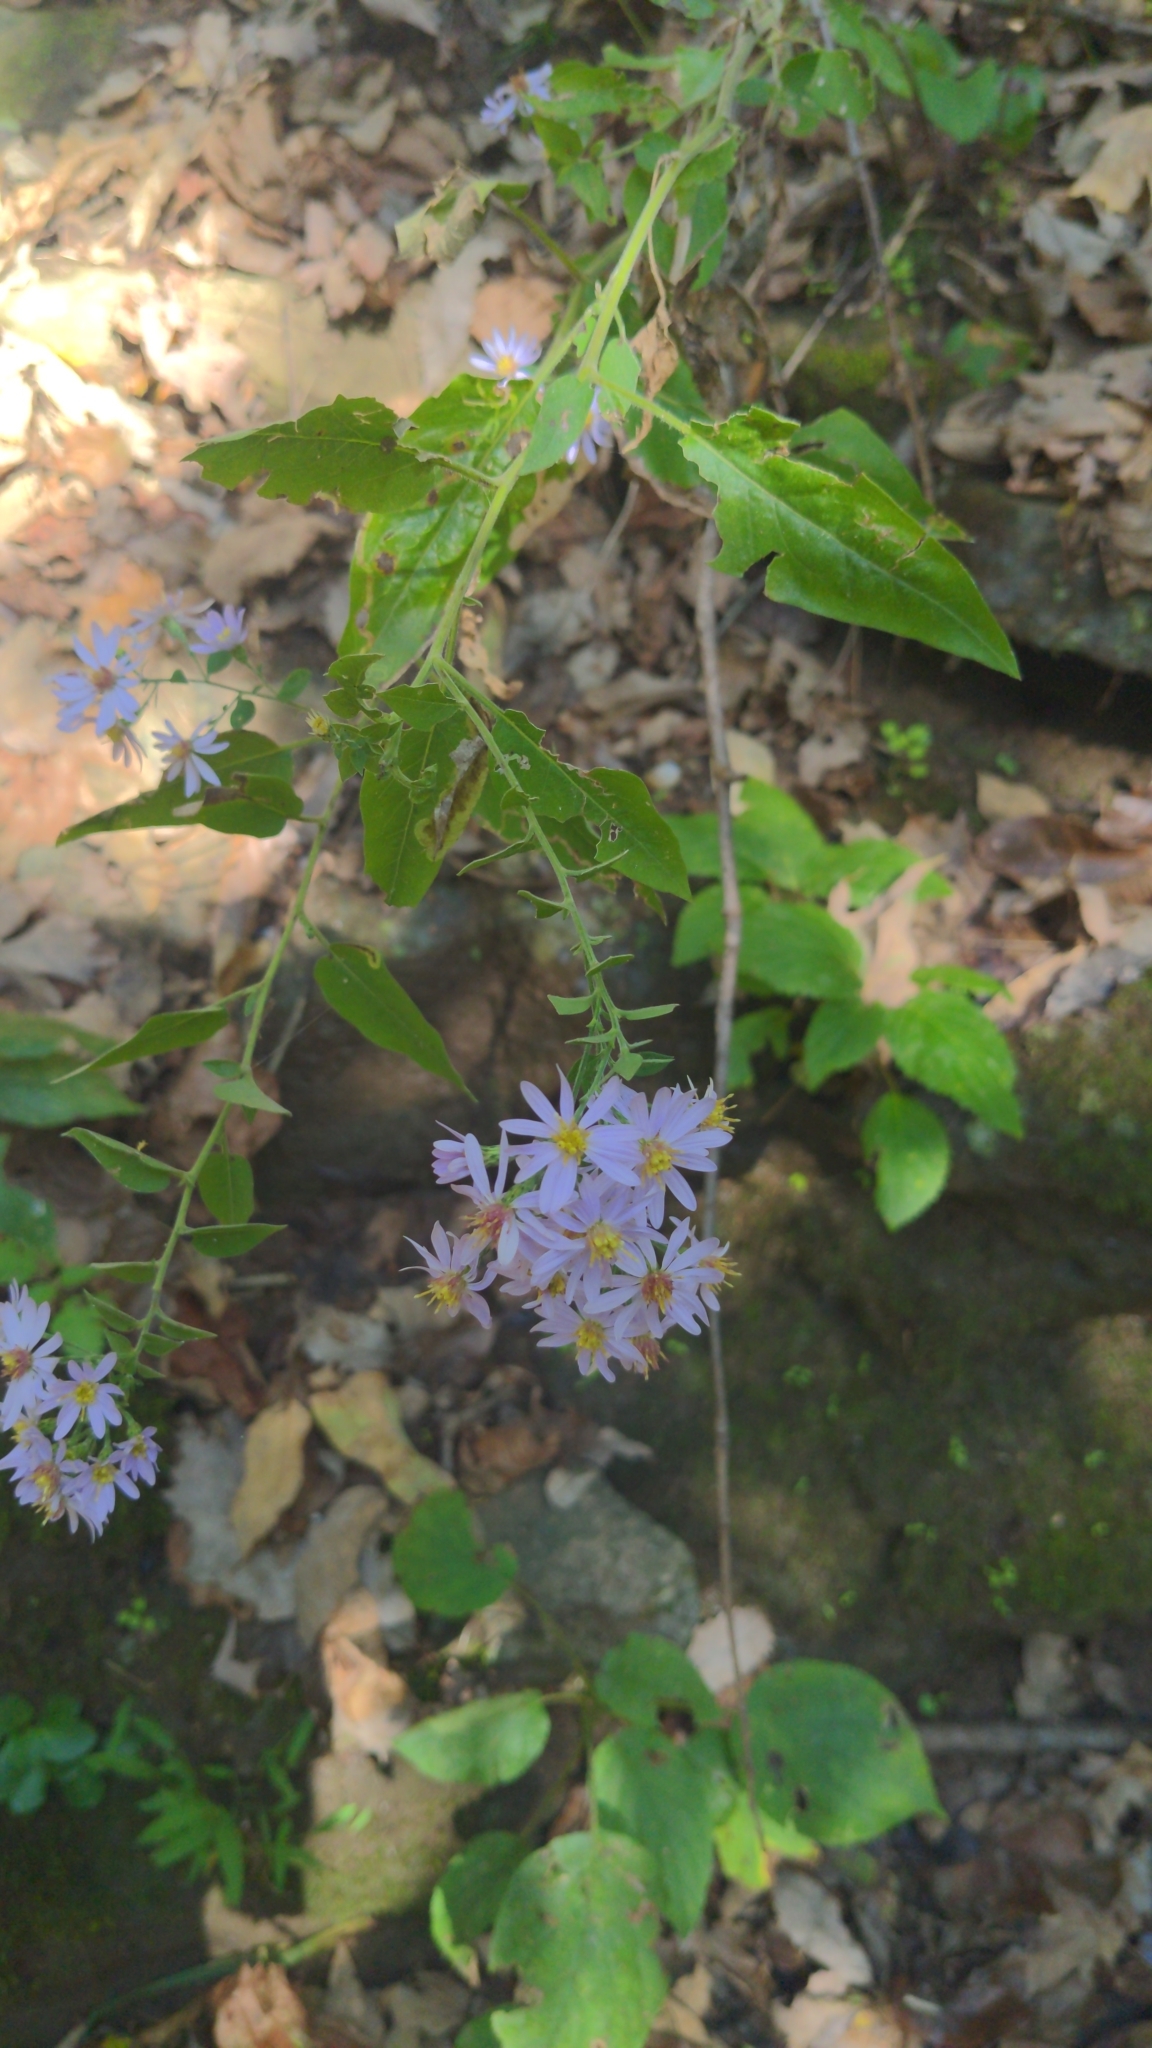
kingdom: Plantae
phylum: Tracheophyta
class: Magnoliopsida
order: Asterales
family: Asteraceae
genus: Symphyotrichum
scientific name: Symphyotrichum shortii
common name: Short's aster
